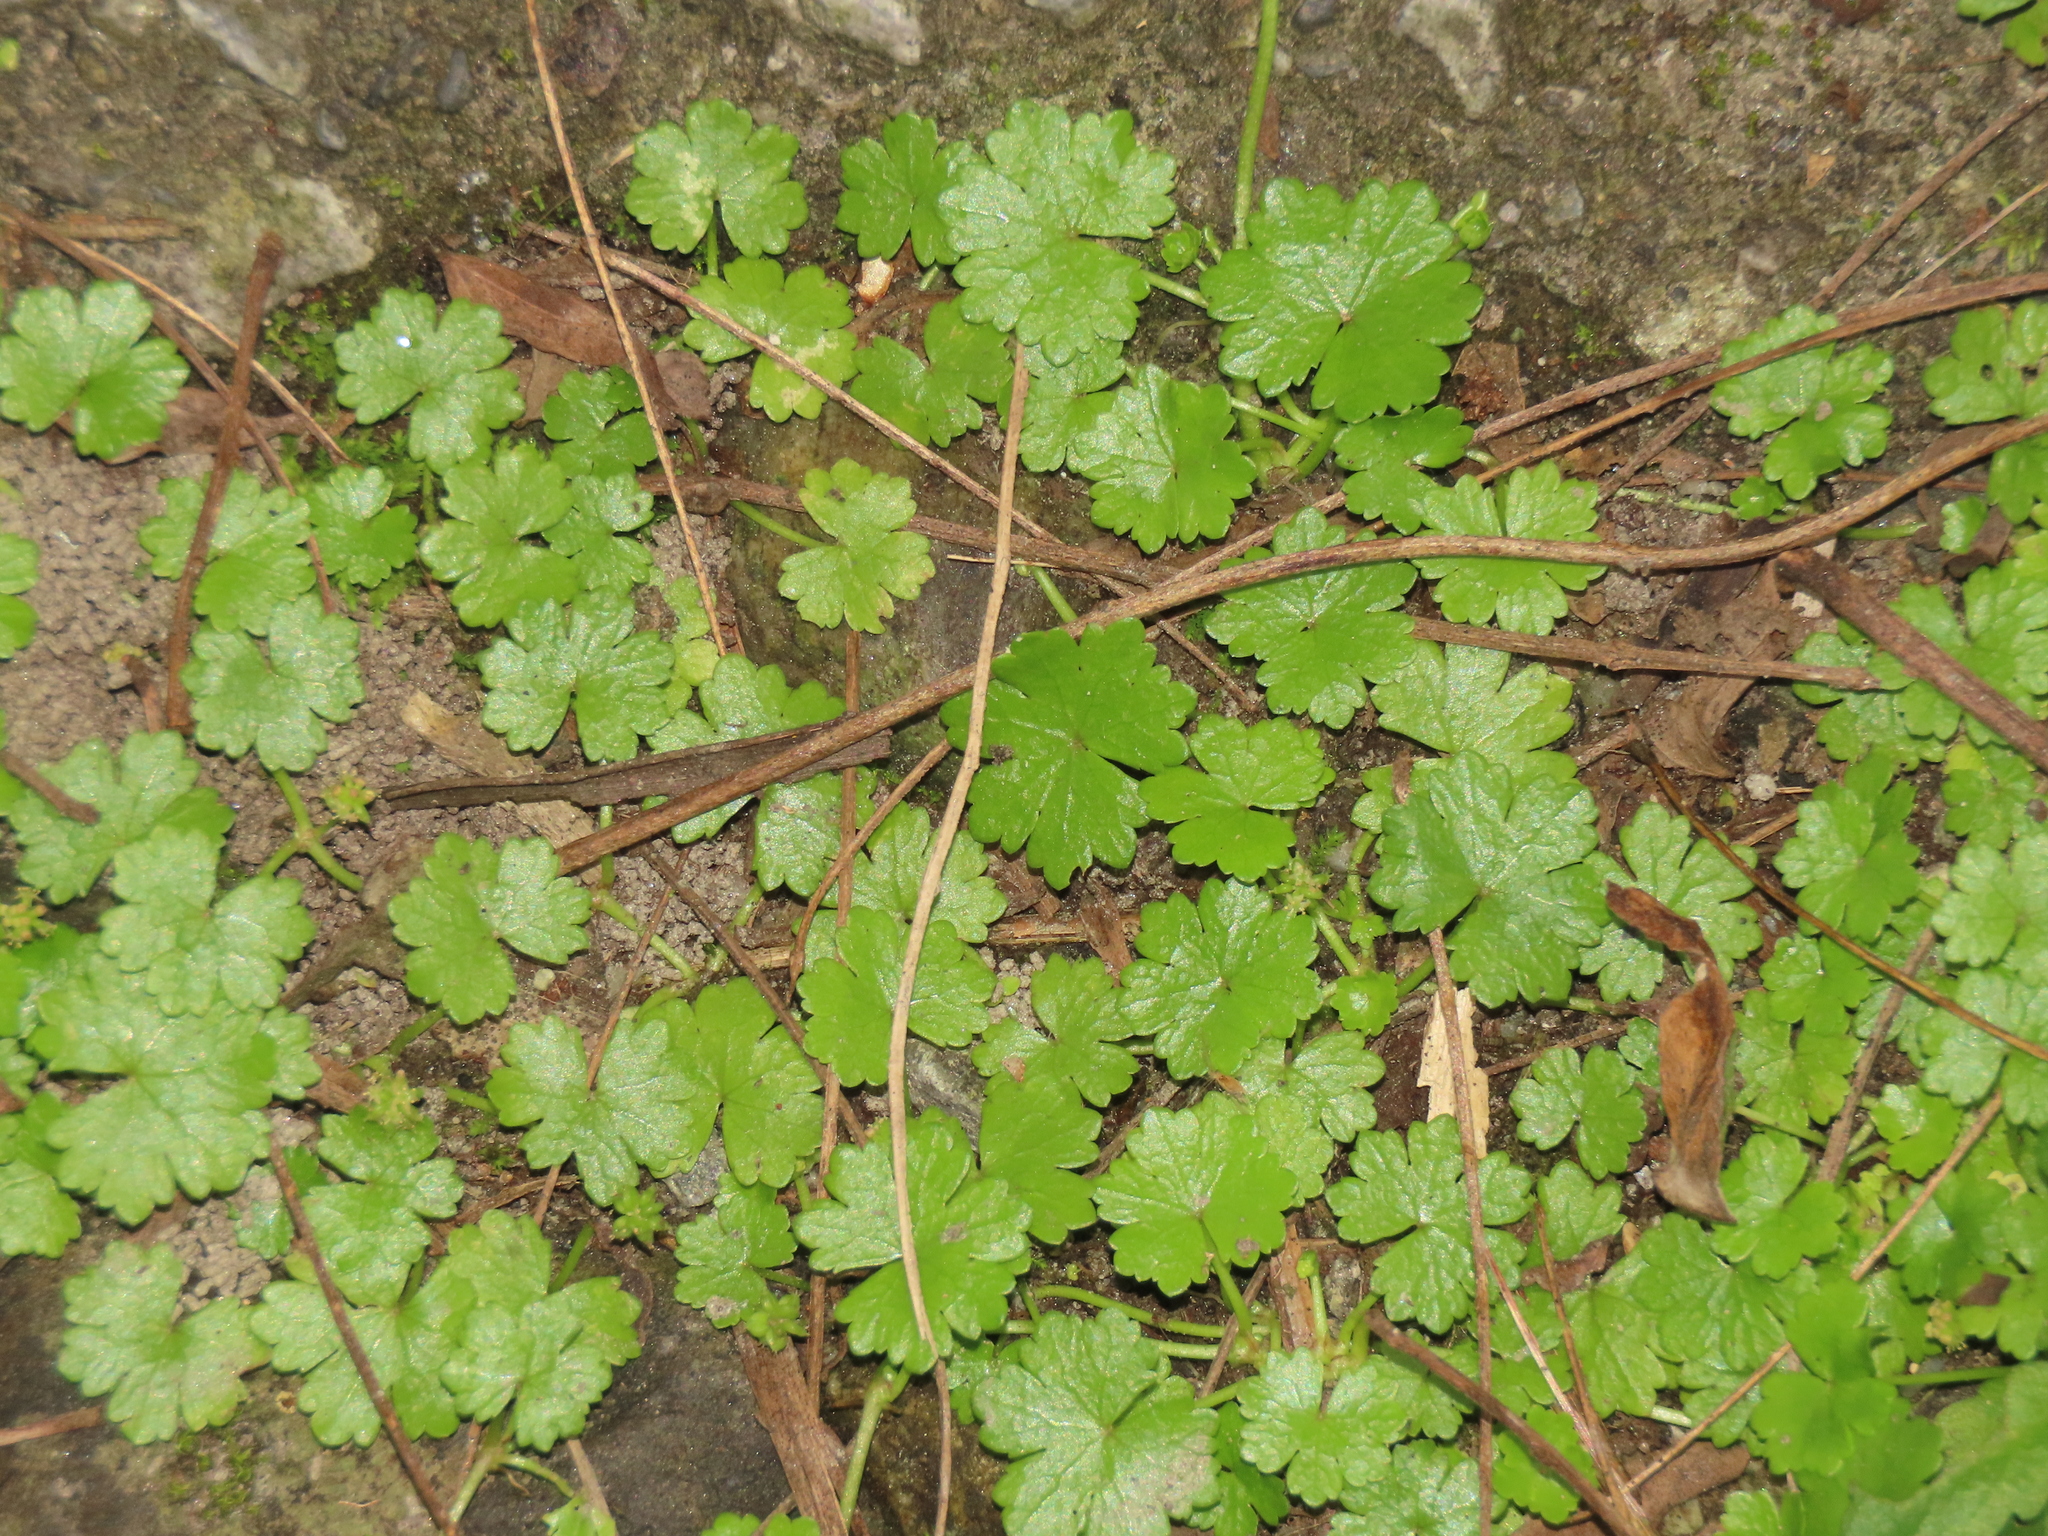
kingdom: Plantae
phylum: Tracheophyta
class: Magnoliopsida
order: Apiales
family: Araliaceae
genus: Hydrocotyle
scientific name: Hydrocotyle sibthorpioides
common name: Lawn marshpennywort
